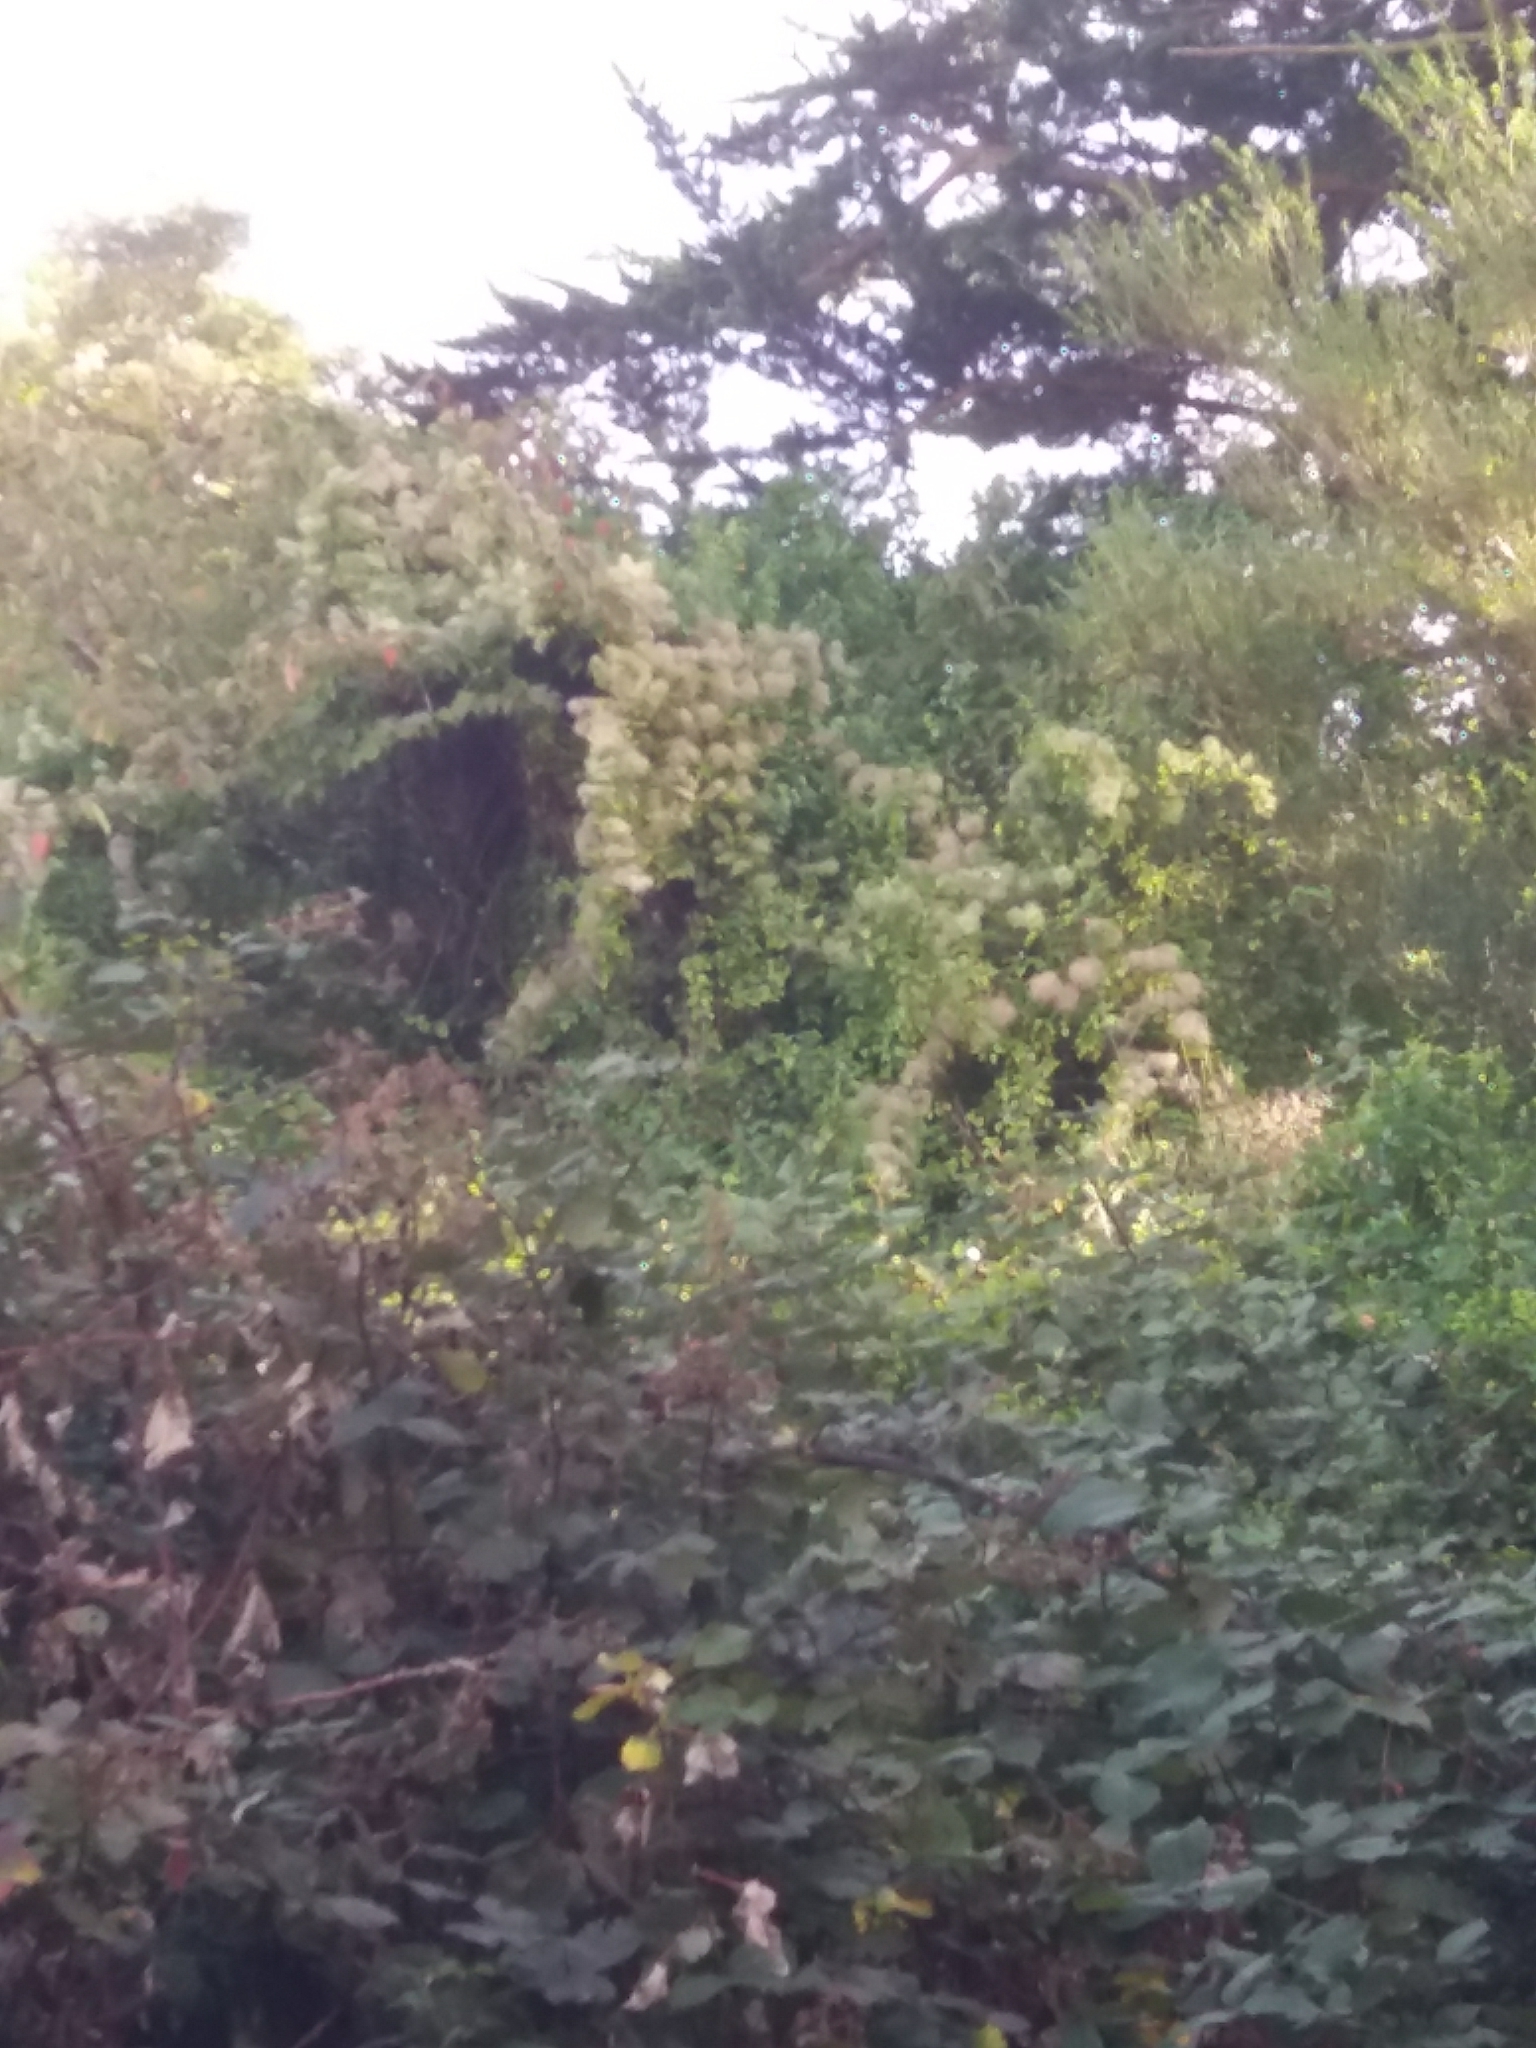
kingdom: Plantae
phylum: Tracheophyta
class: Magnoliopsida
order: Ranunculales
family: Ranunculaceae
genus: Clematis
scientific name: Clematis vitalba
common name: Evergreen clematis
